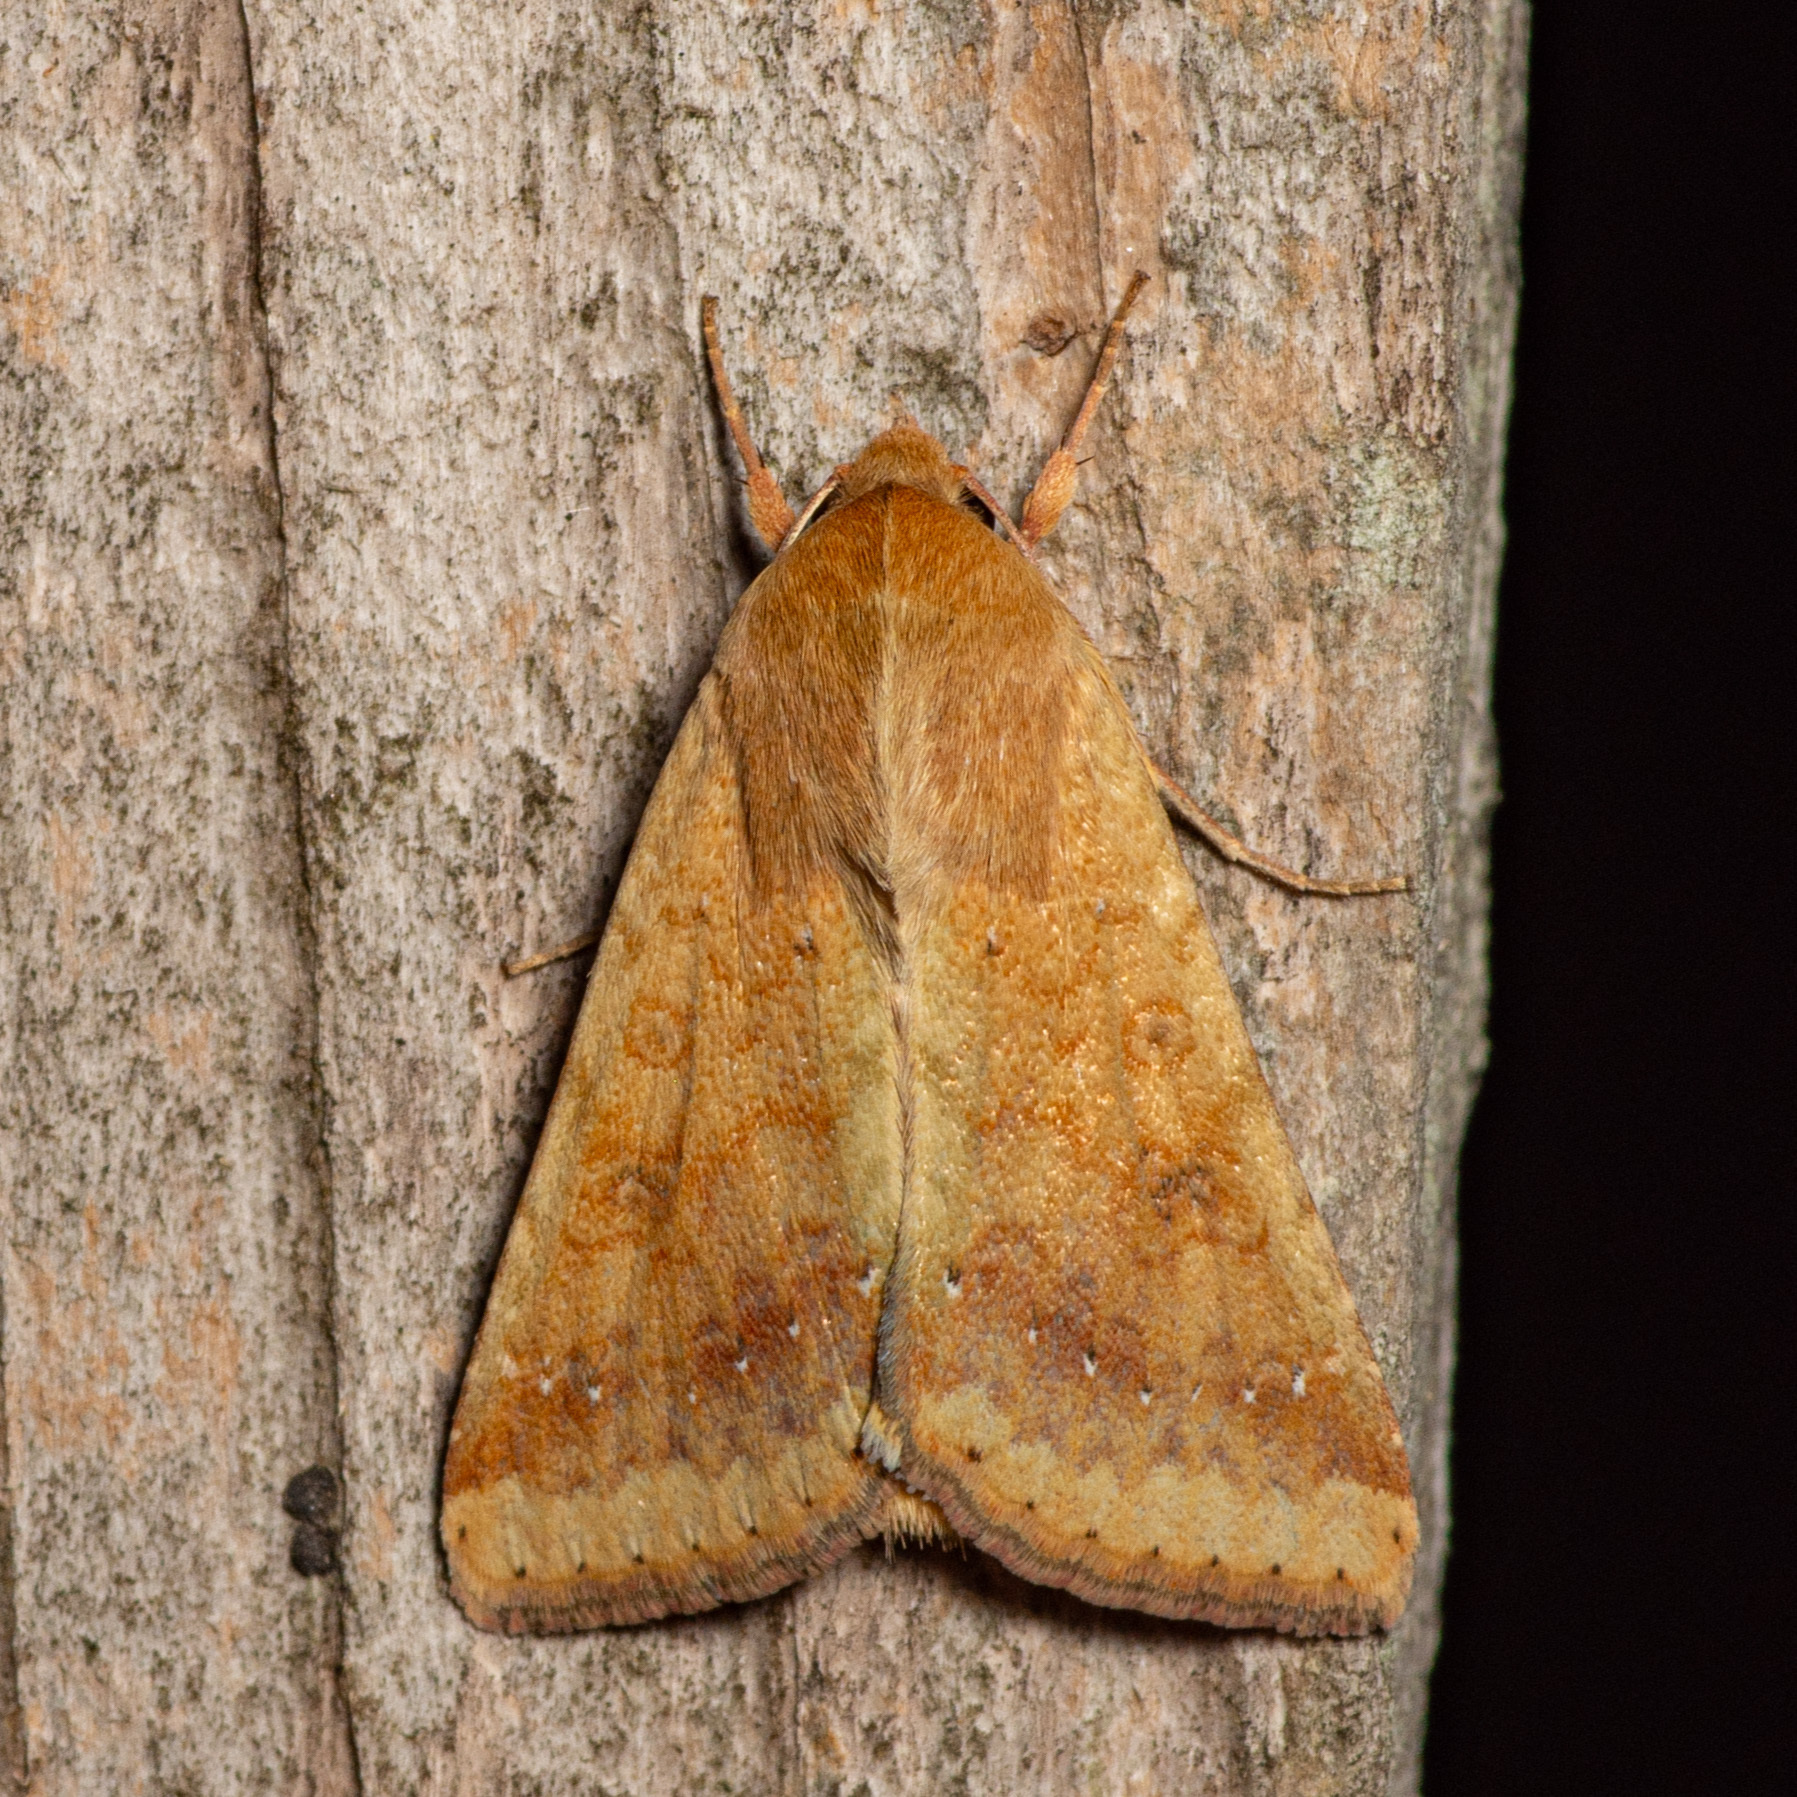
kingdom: Animalia
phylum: Arthropoda
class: Insecta
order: Lepidoptera
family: Noctuidae
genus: Helicoverpa
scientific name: Helicoverpa zea
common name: Bollworm
